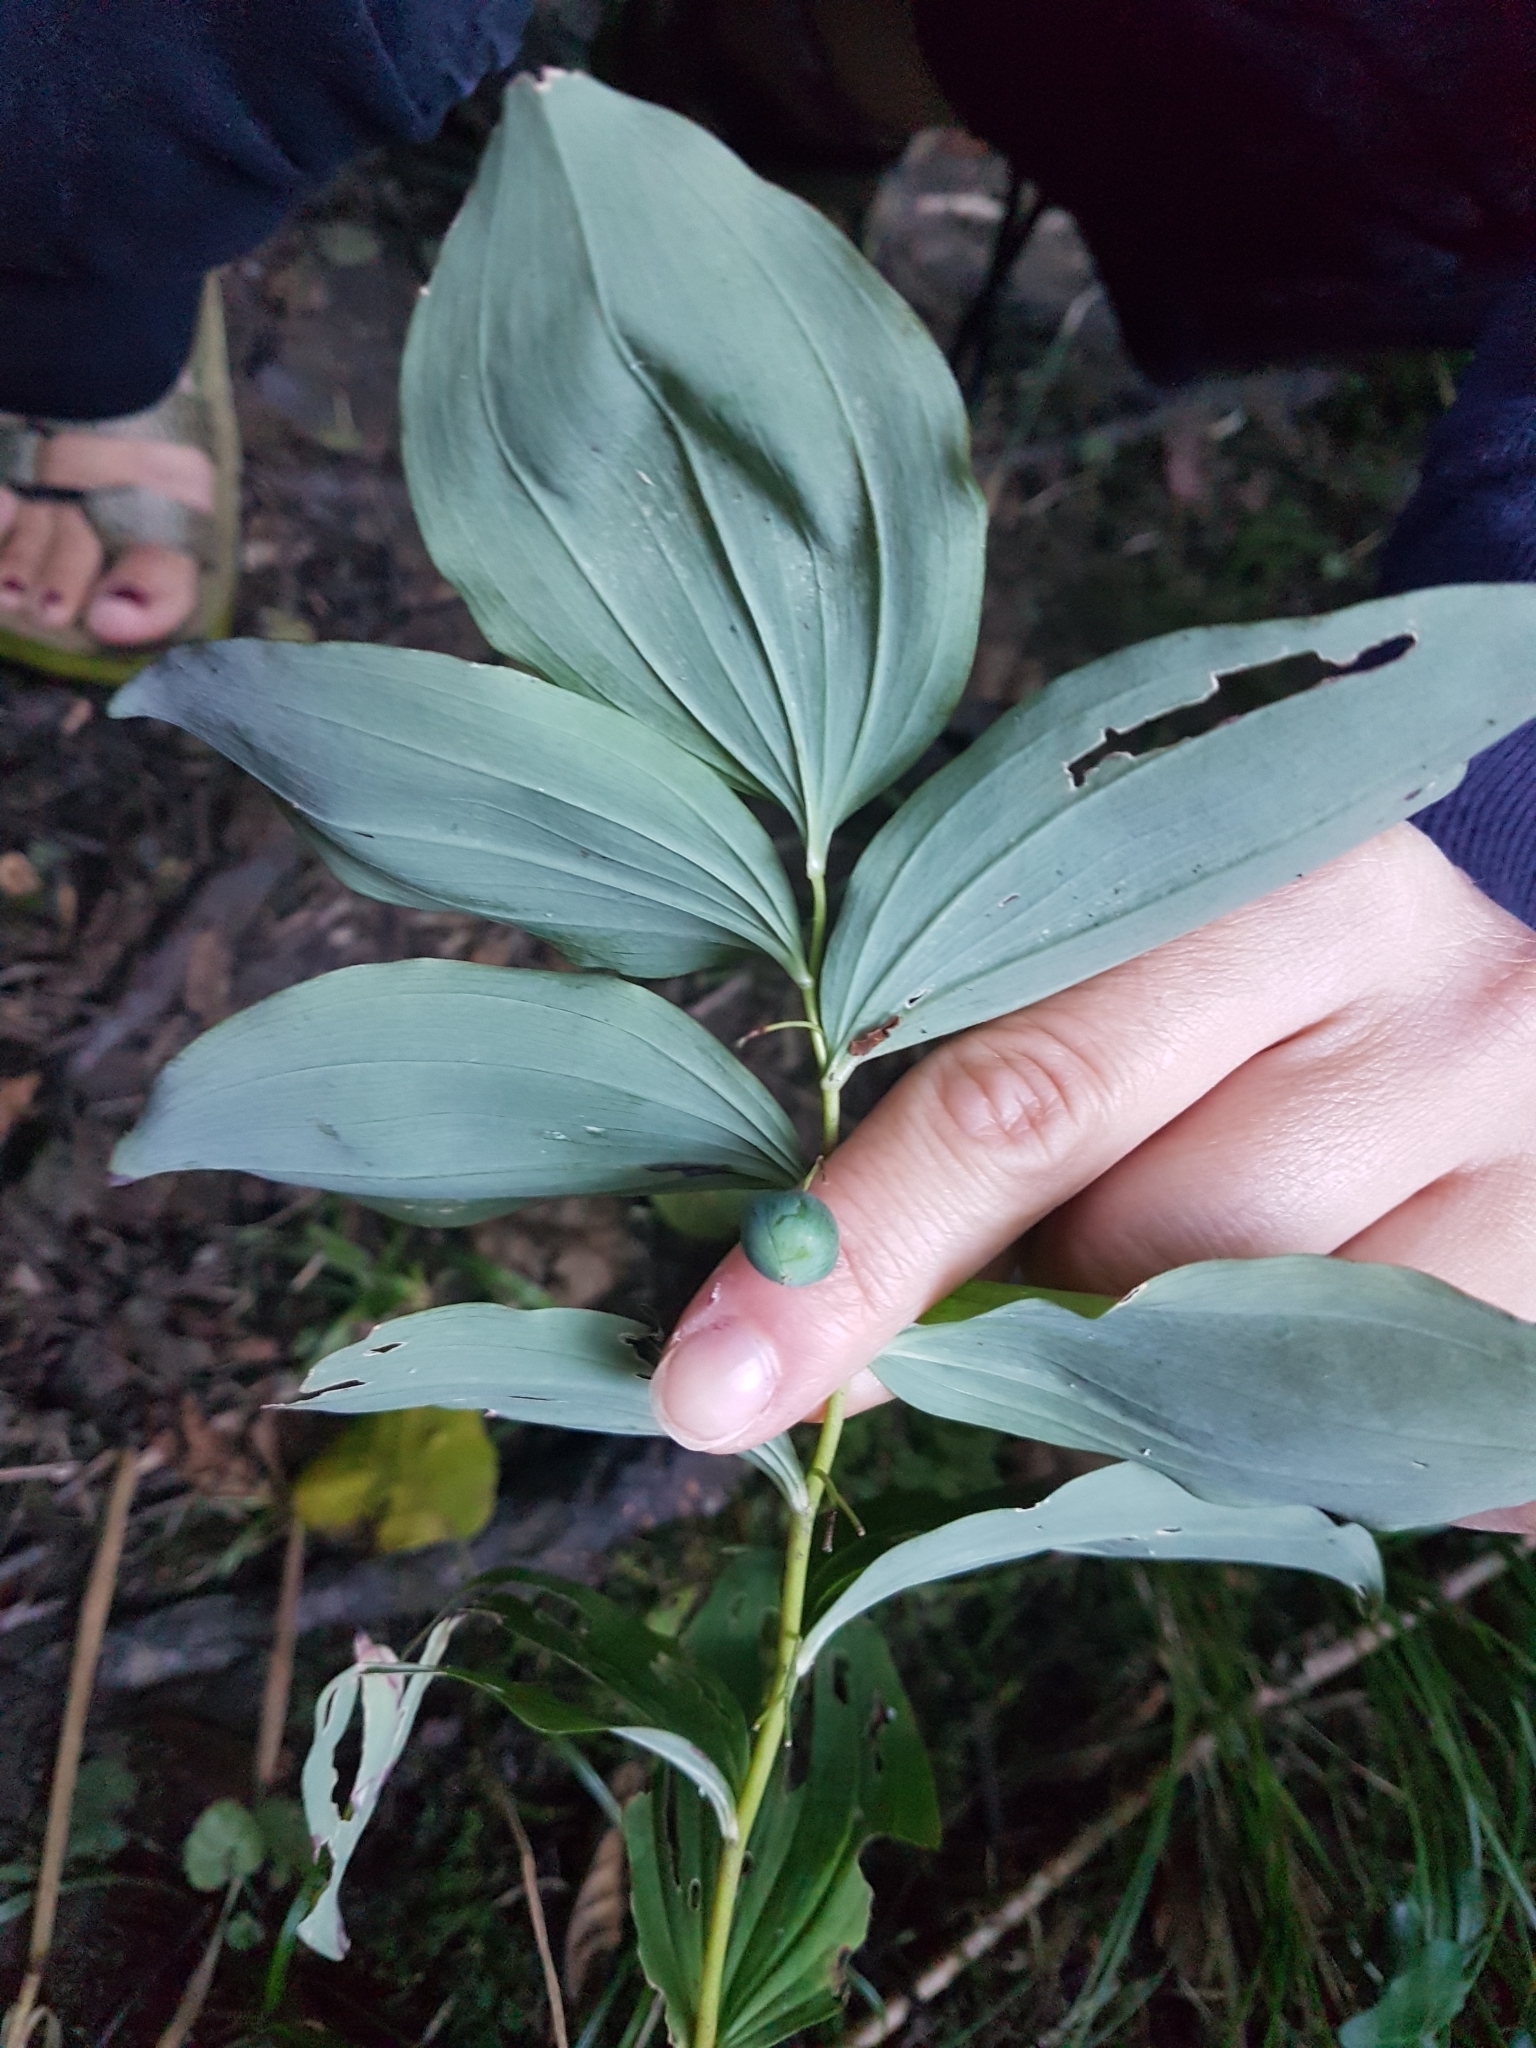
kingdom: Plantae
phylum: Tracheophyta
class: Liliopsida
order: Asparagales
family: Asparagaceae
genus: Polygonatum
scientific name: Polygonatum multiflorum
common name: Solomon's-seal
